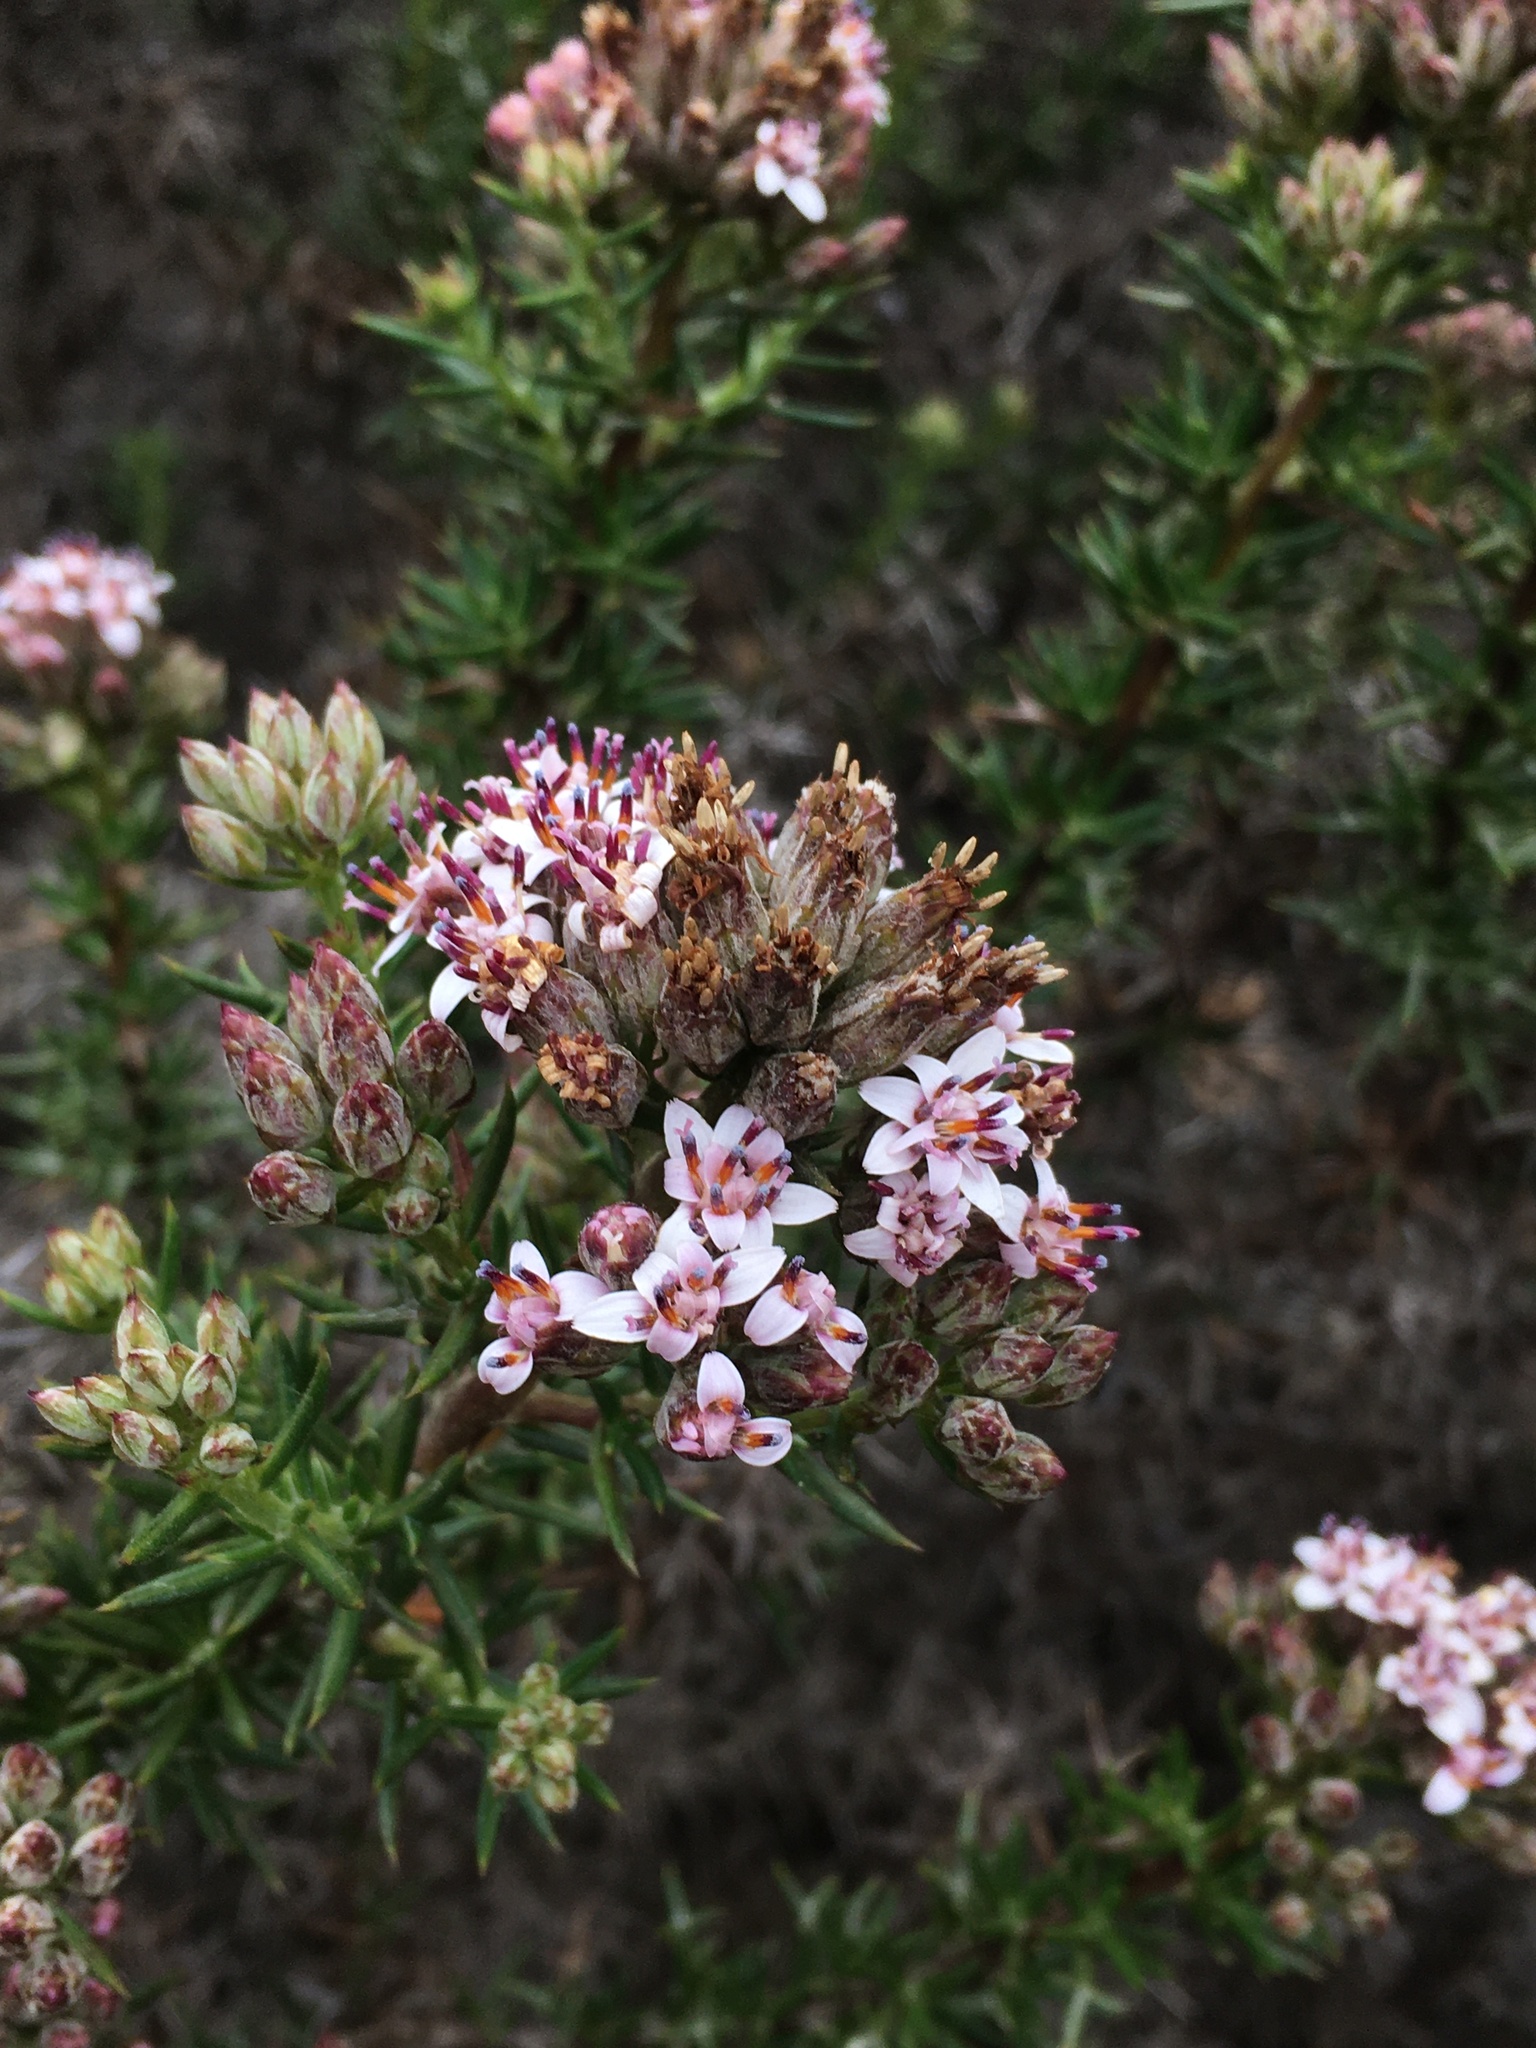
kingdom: Plantae
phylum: Tracheophyta
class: Magnoliopsida
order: Asterales
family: Asteraceae
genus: Oxyphyllum
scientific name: Oxyphyllum ulicinum
